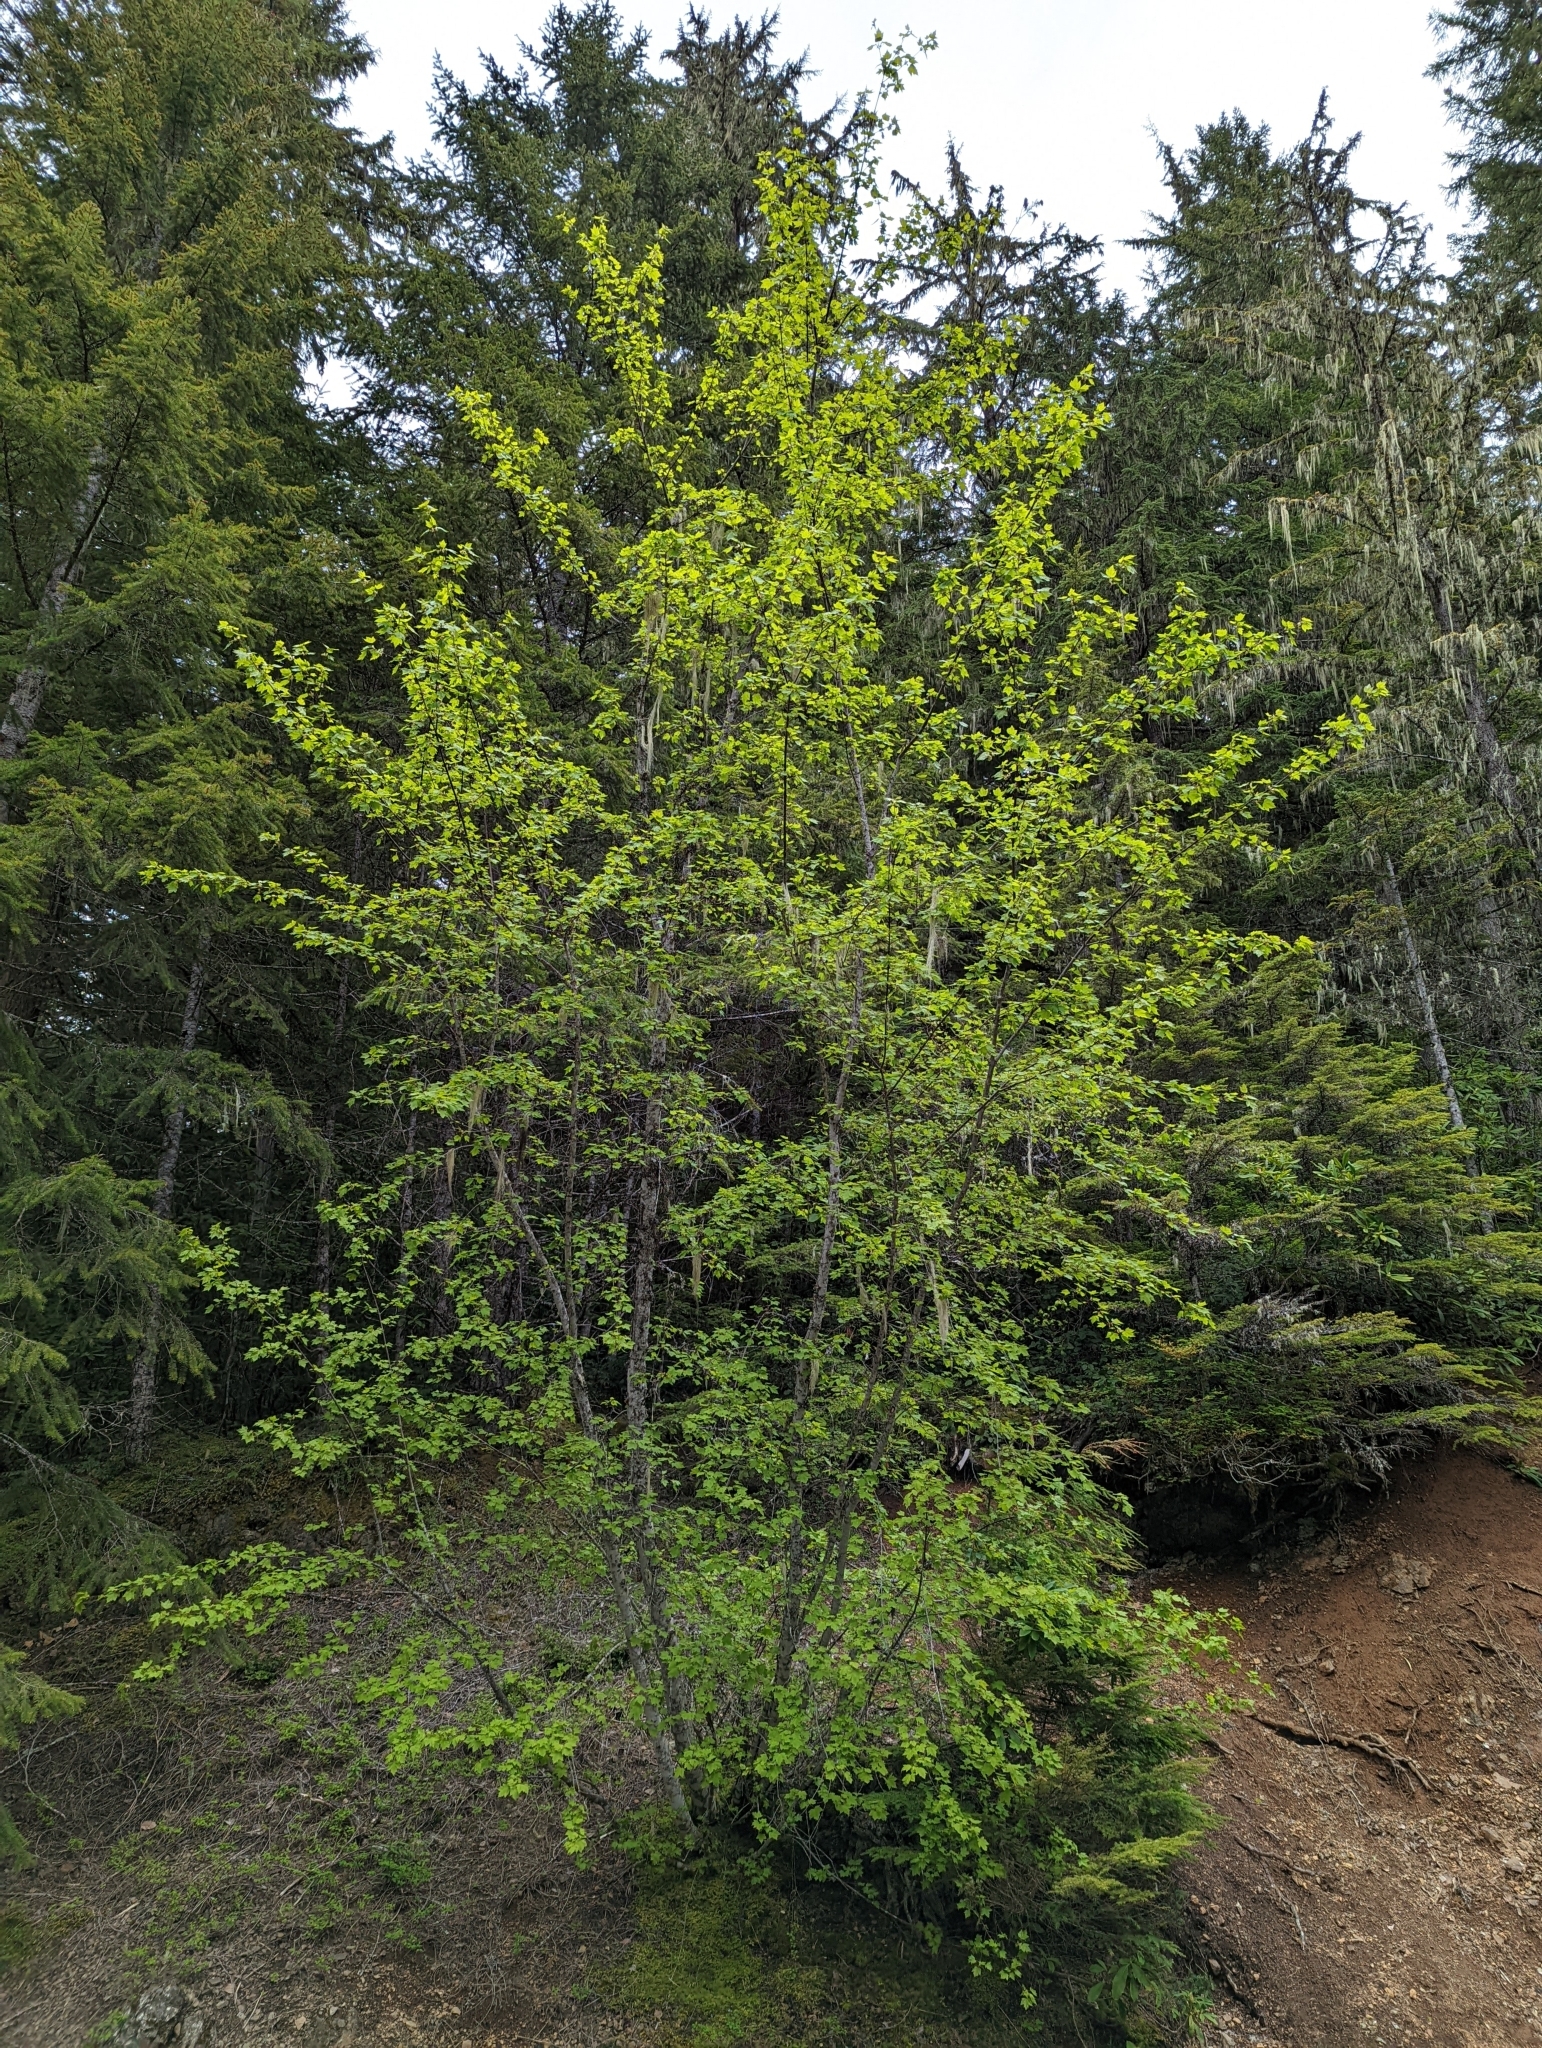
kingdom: Plantae
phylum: Tracheophyta
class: Magnoliopsida
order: Sapindales
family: Sapindaceae
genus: Acer
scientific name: Acer glabrum
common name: Rocky mountain maple
